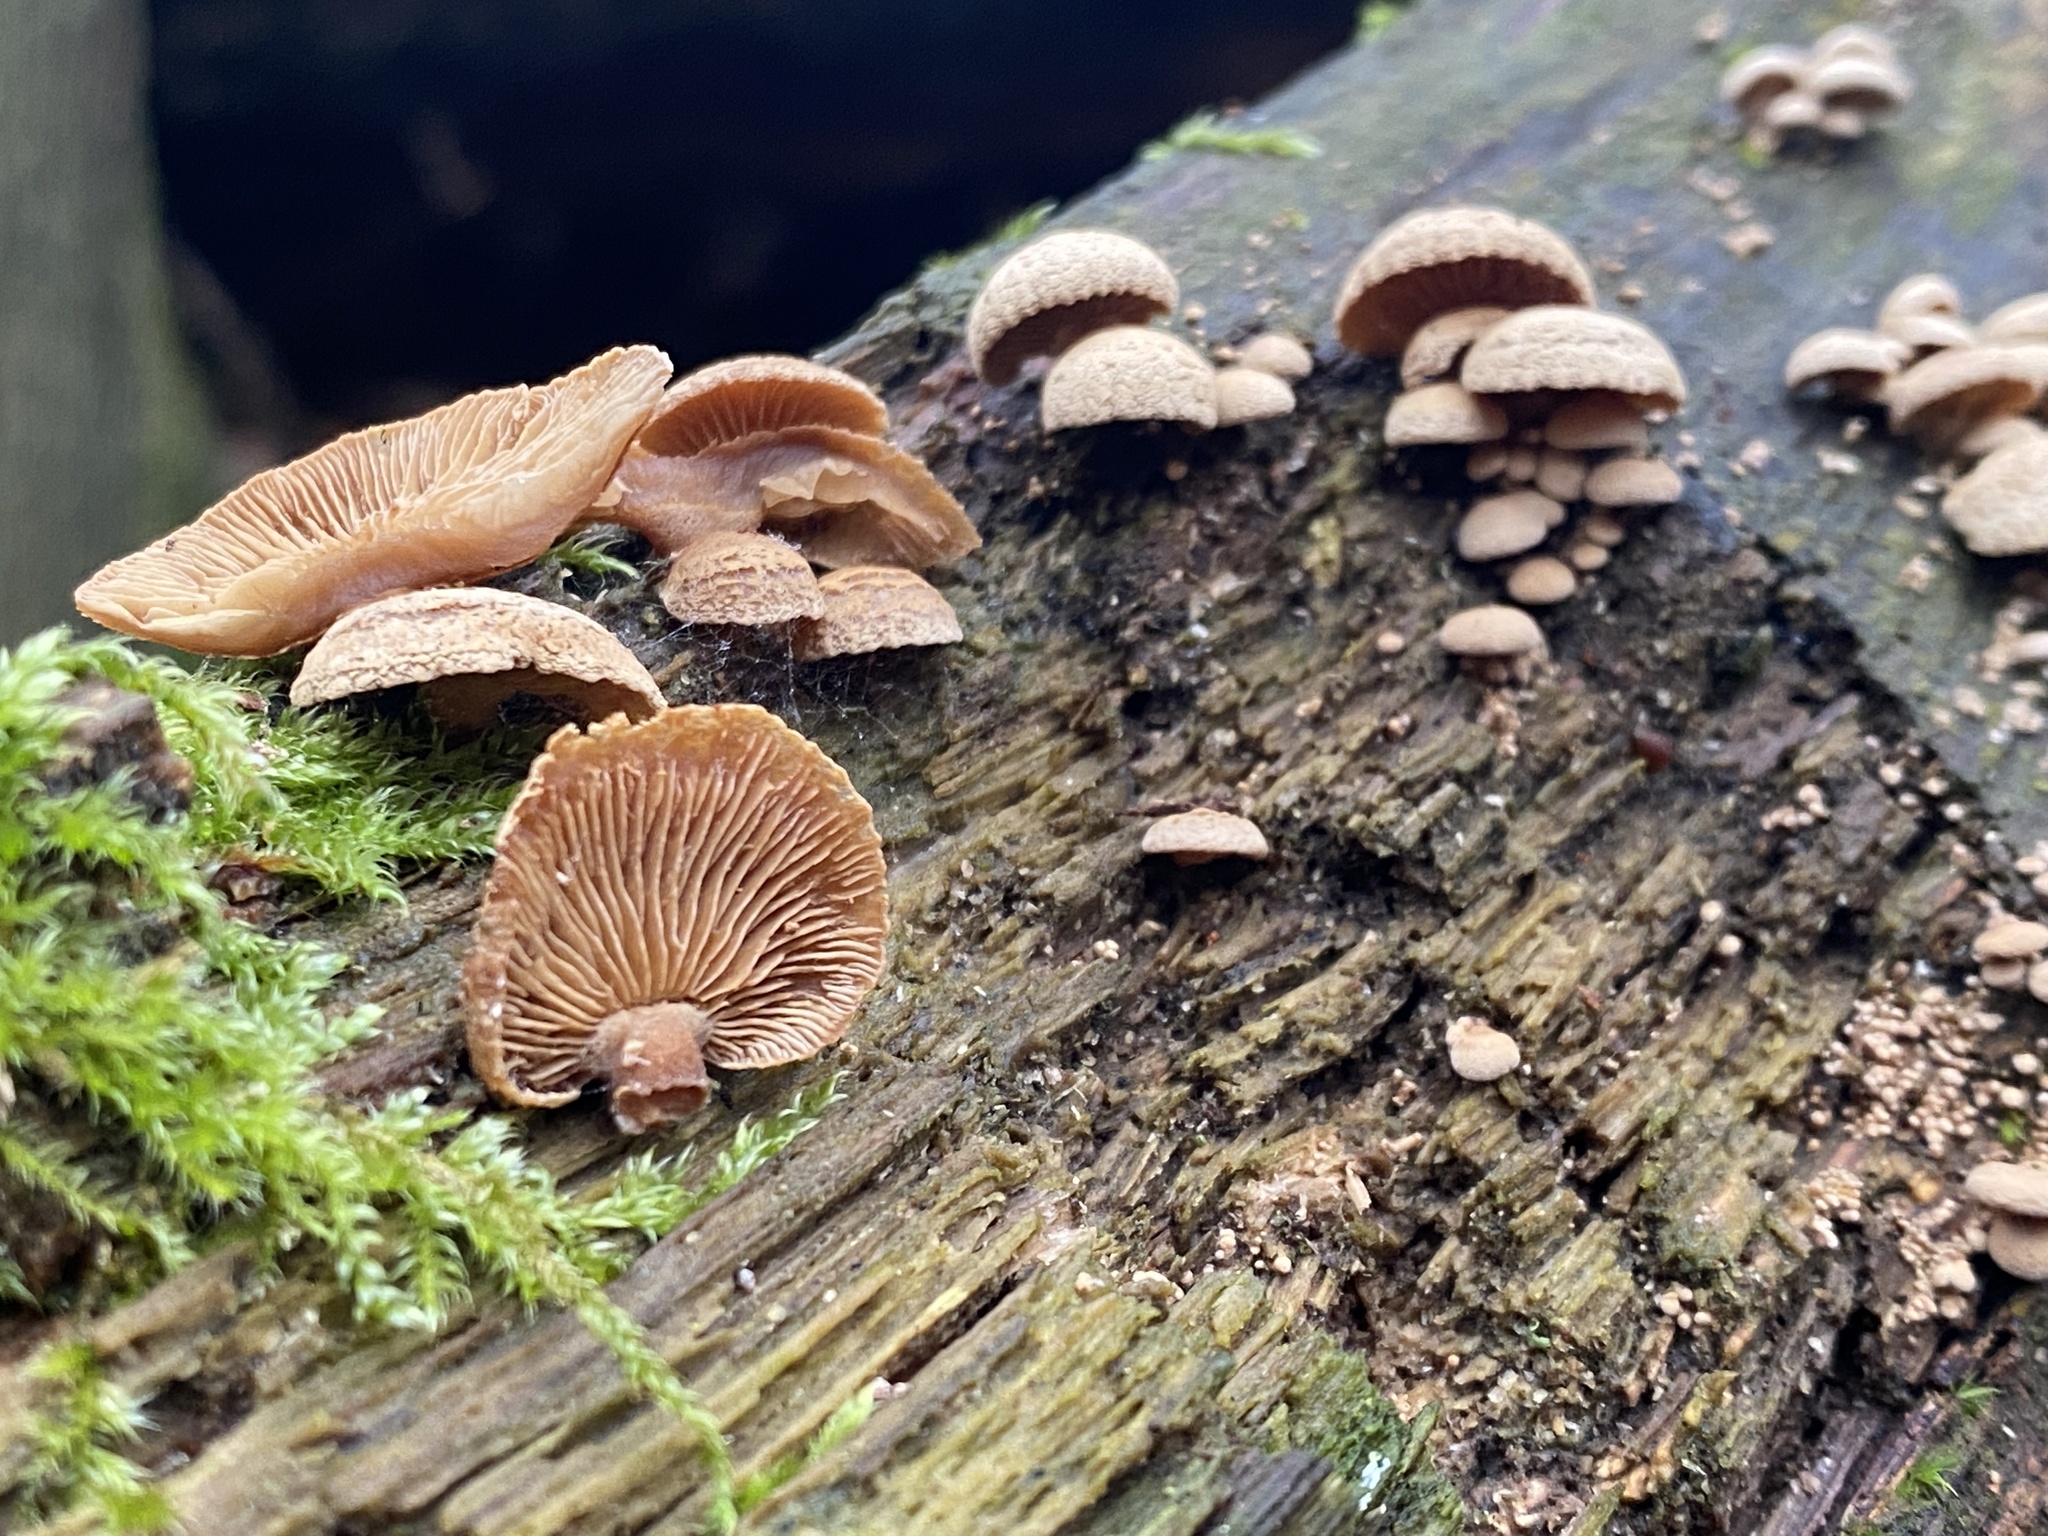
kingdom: Fungi
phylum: Basidiomycota
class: Agaricomycetes
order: Agaricales
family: Mycenaceae
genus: Panellus
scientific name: Panellus stipticus
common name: Bitter oysterling
